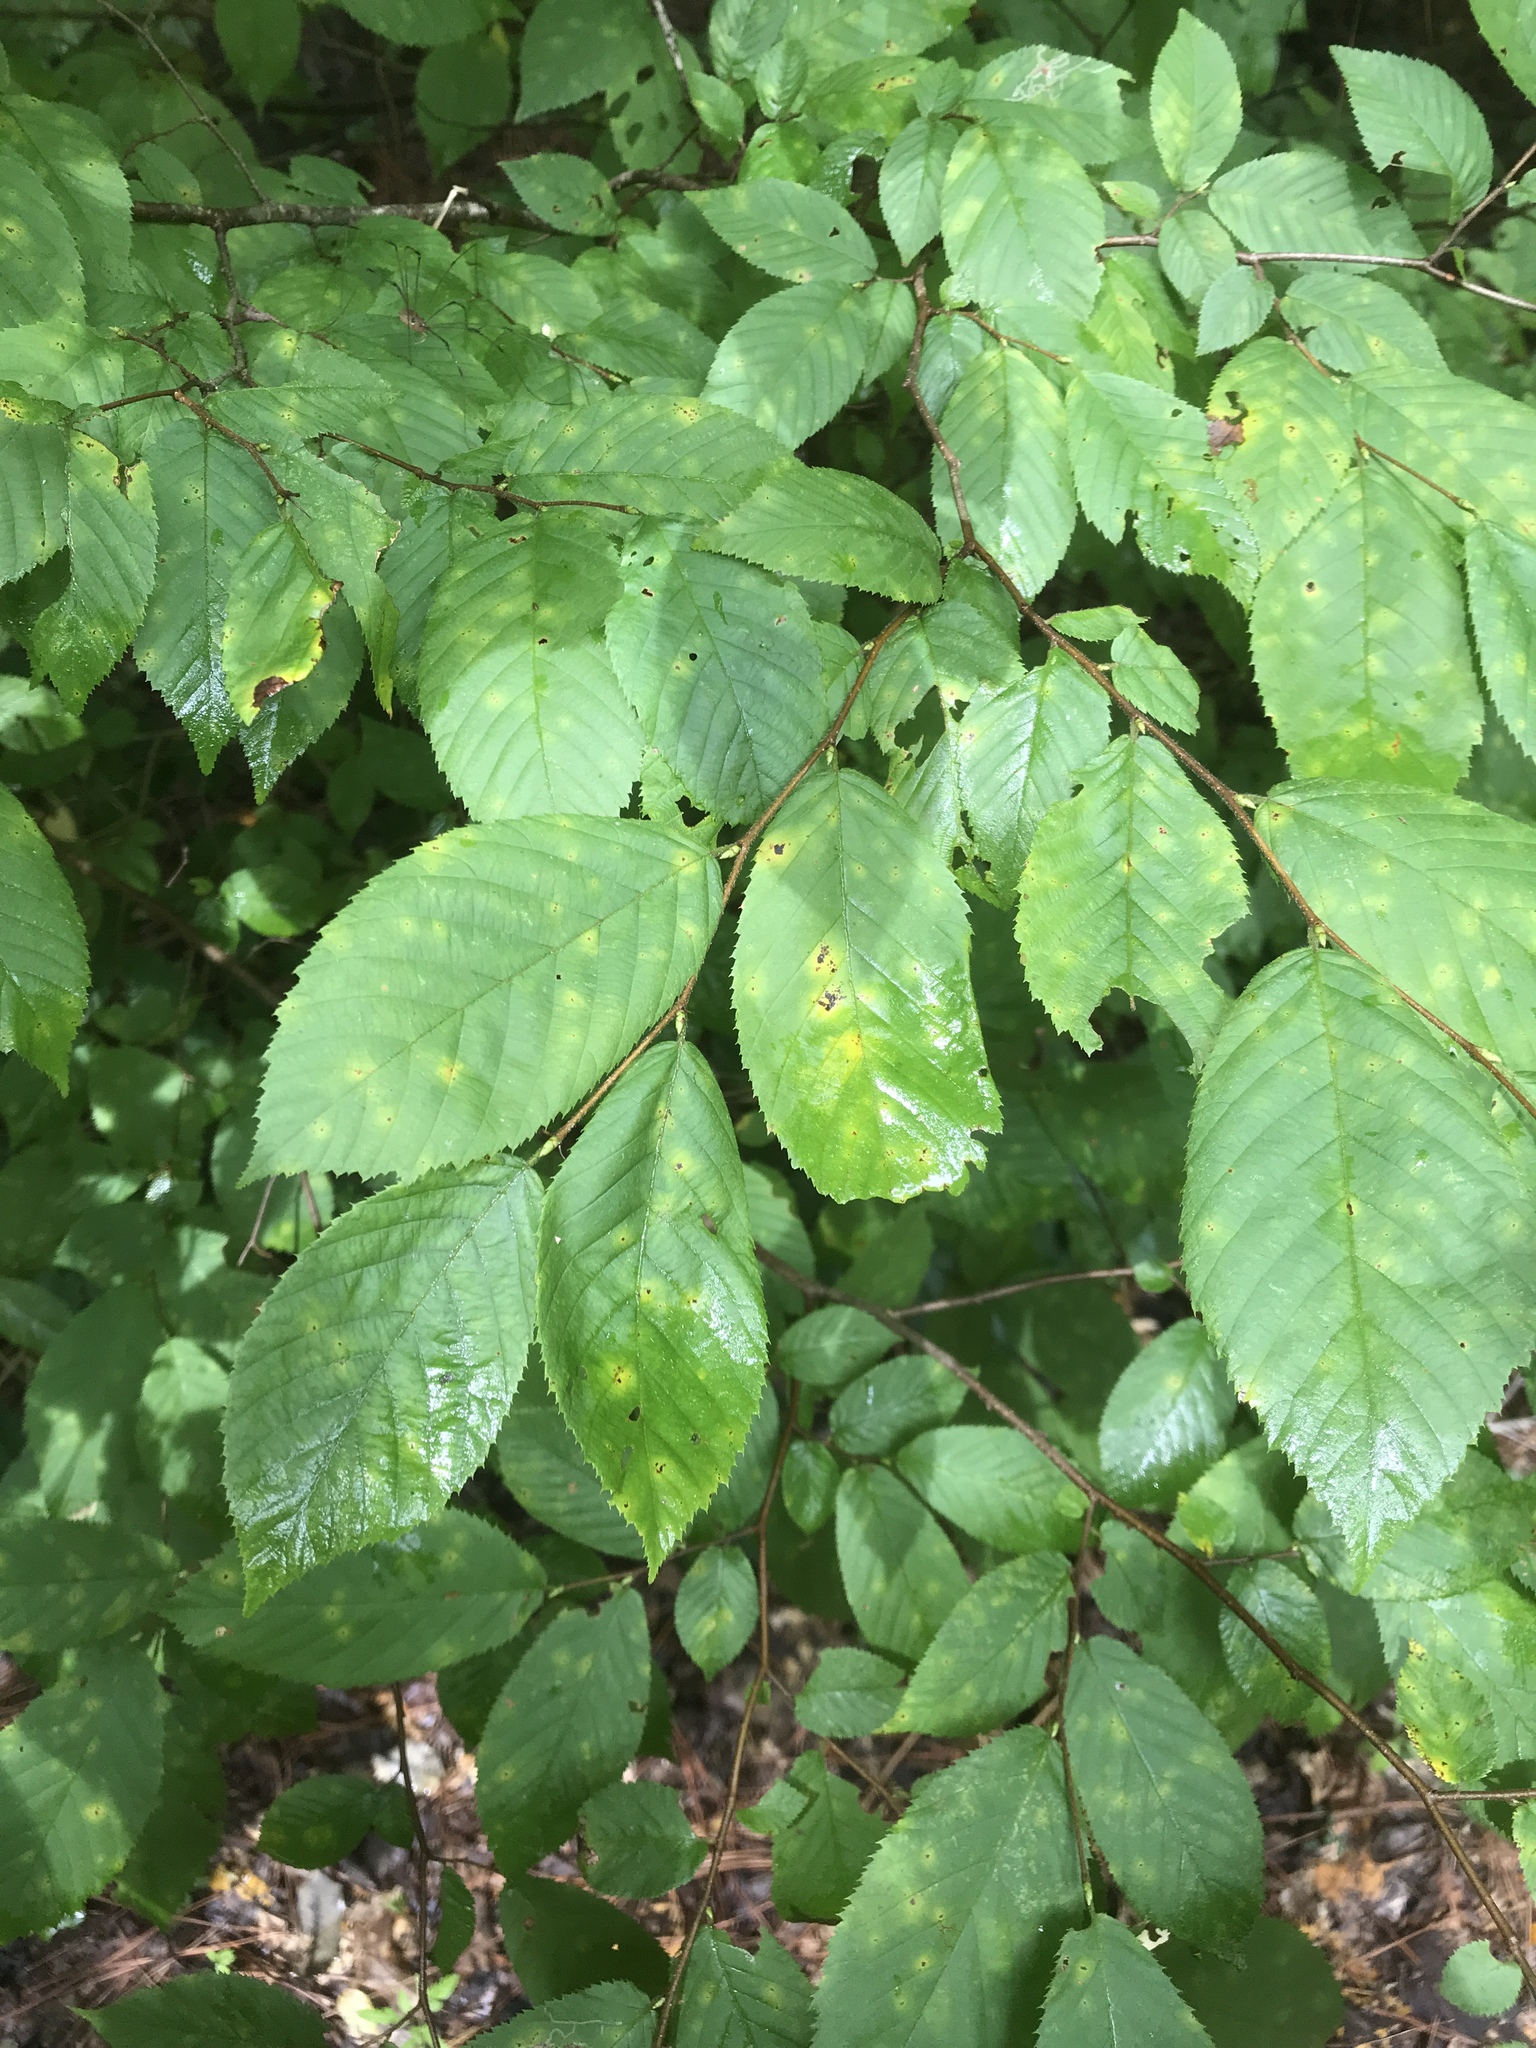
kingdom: Plantae
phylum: Tracheophyta
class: Magnoliopsida
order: Fagales
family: Betulaceae
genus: Ostrya
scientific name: Ostrya virginiana
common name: Ironwood
